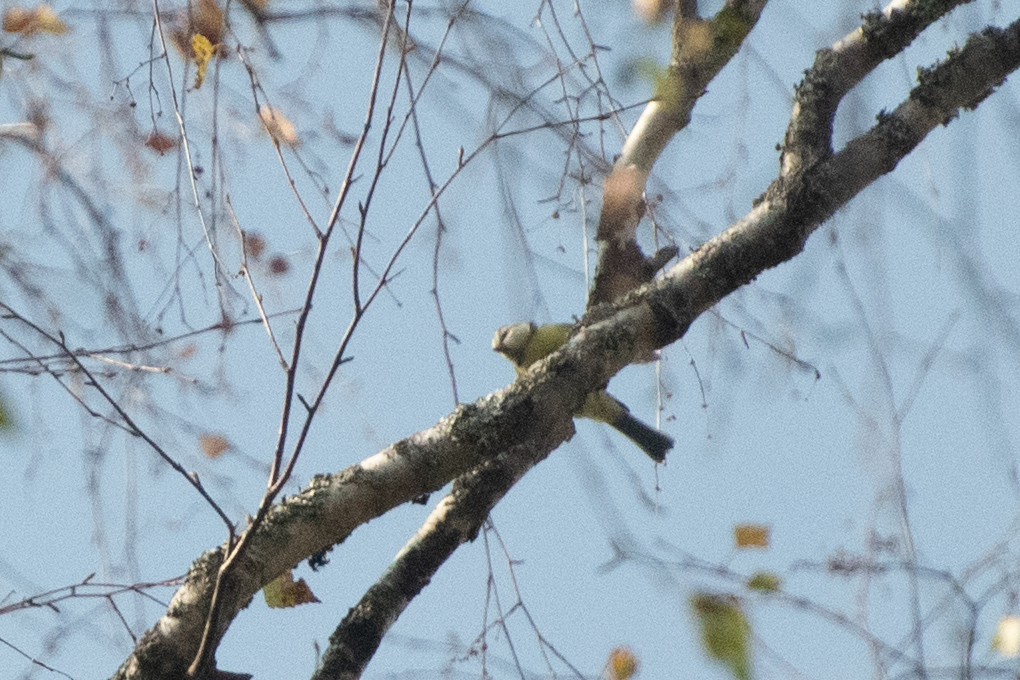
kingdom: Animalia
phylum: Chordata
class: Aves
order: Passeriformes
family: Paridae
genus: Cyanistes
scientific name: Cyanistes caeruleus
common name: Eurasian blue tit
